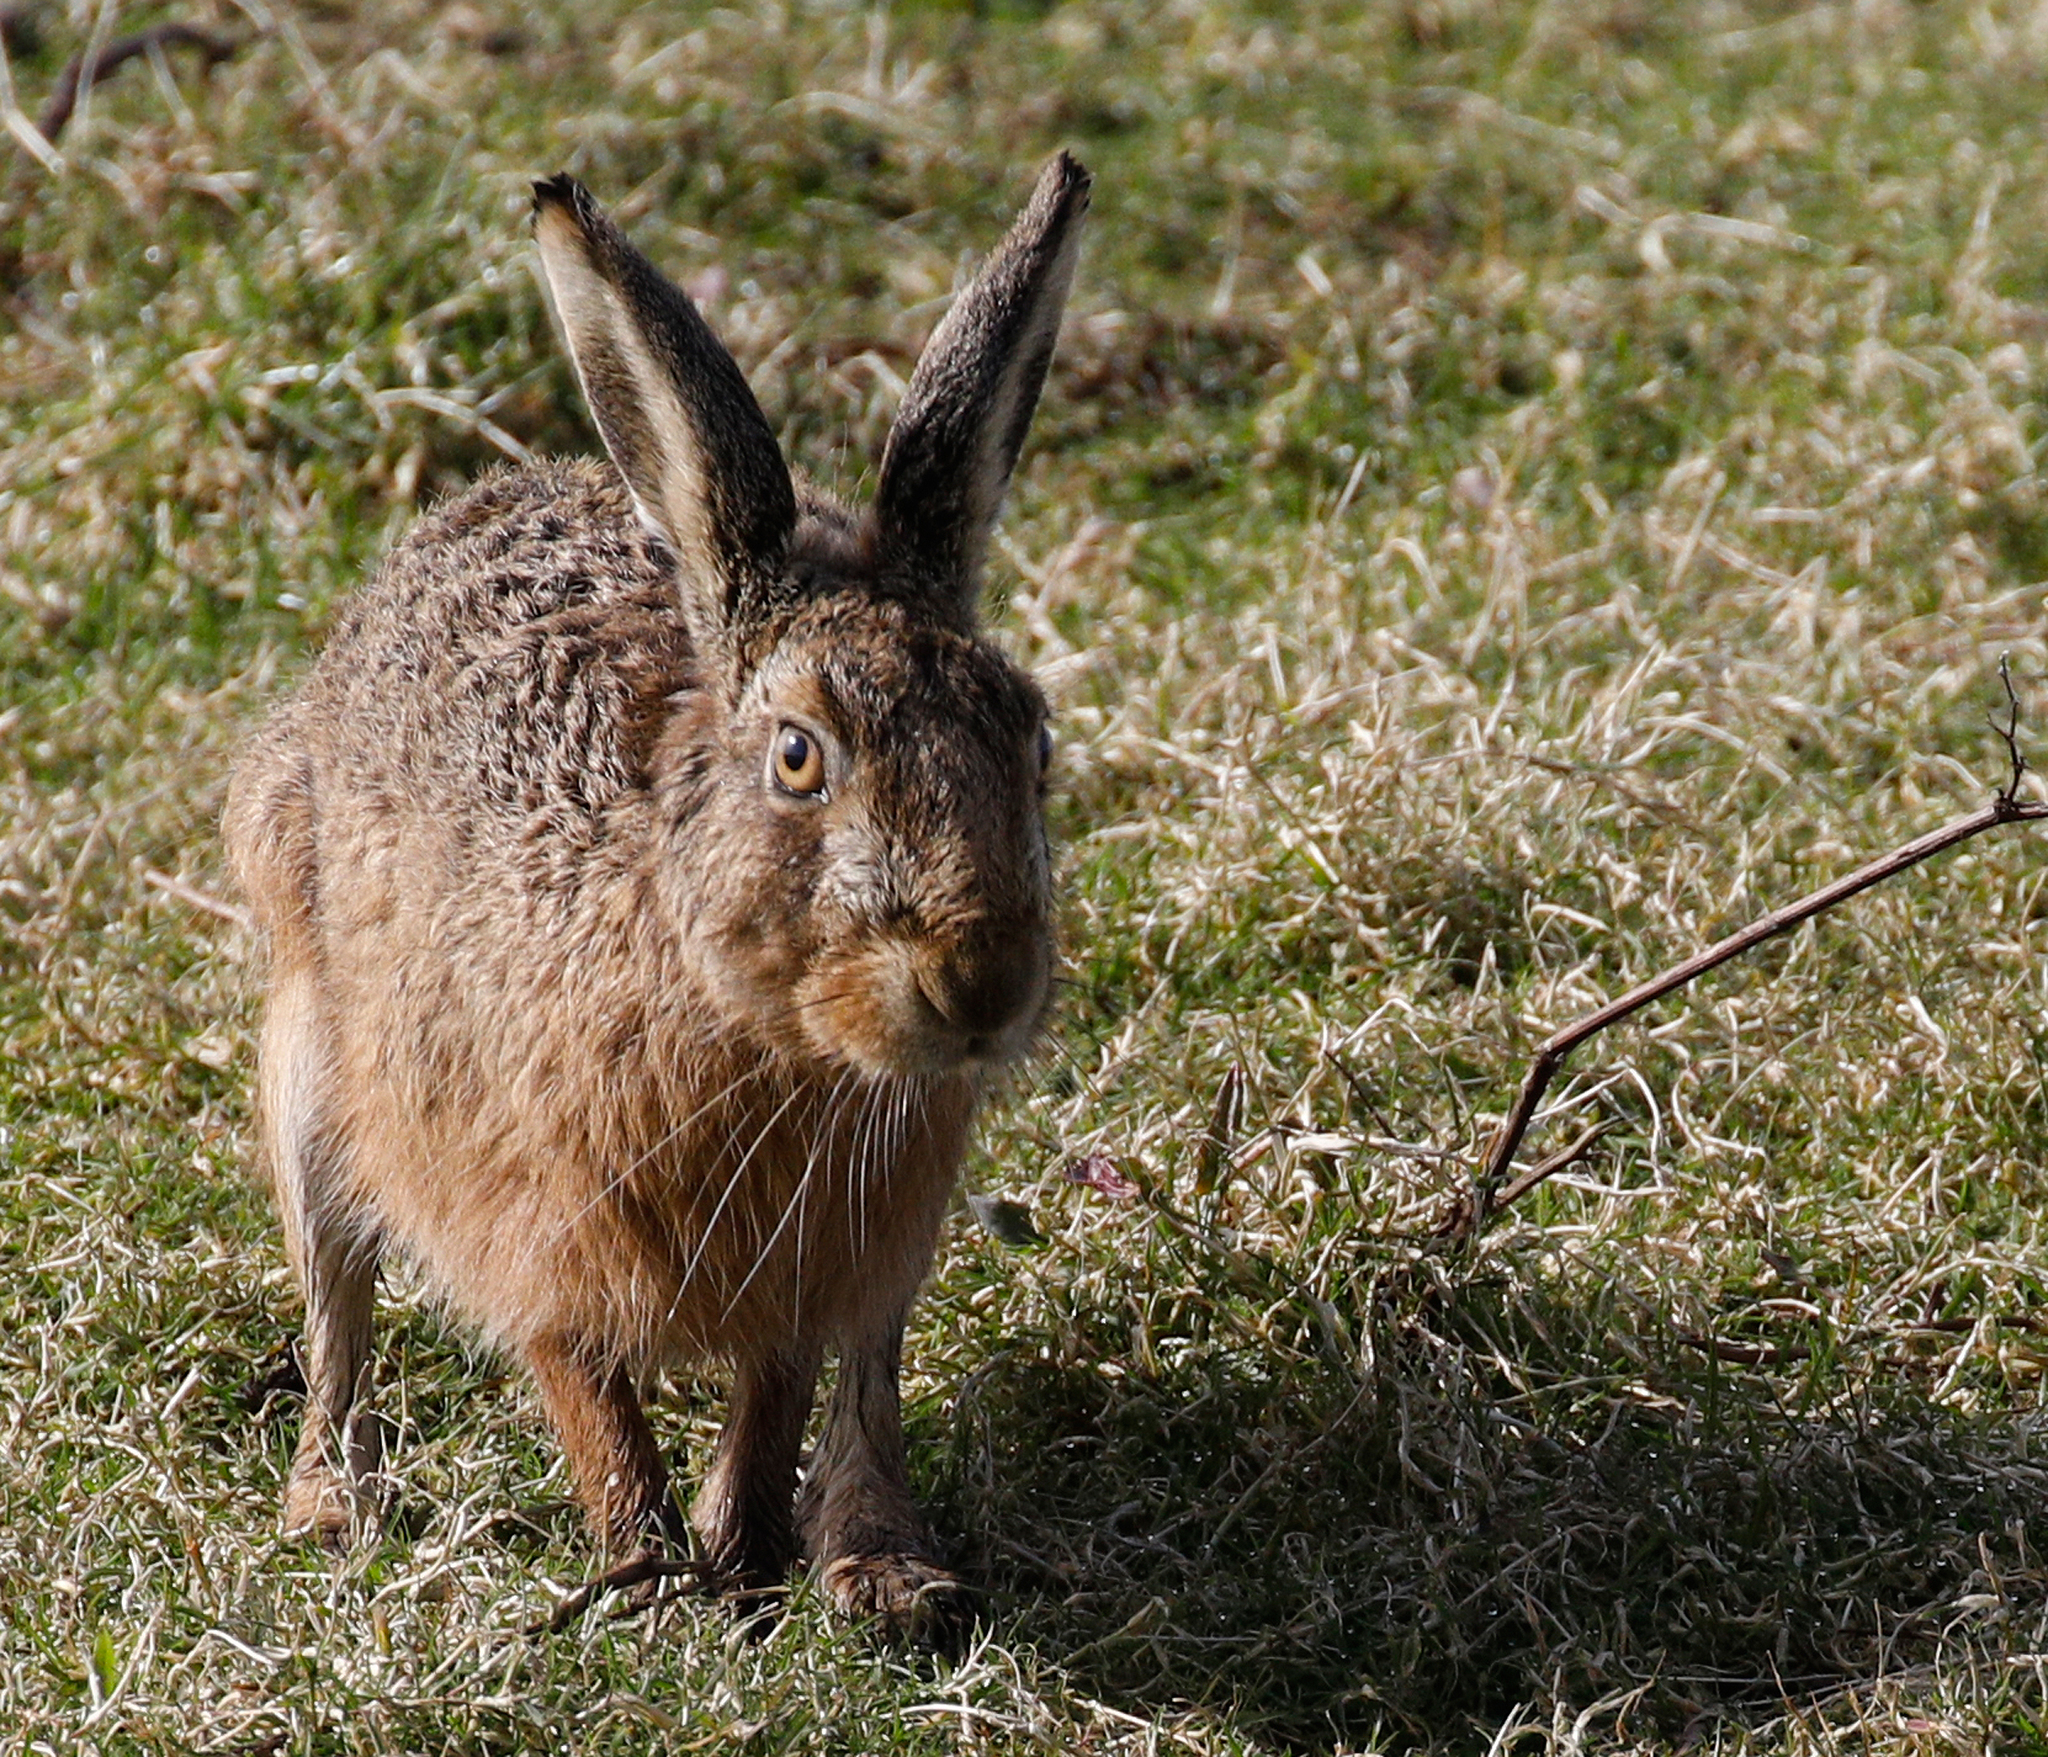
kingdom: Animalia
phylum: Chordata
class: Mammalia
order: Lagomorpha
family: Leporidae
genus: Lepus
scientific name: Lepus europaeus
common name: European hare
